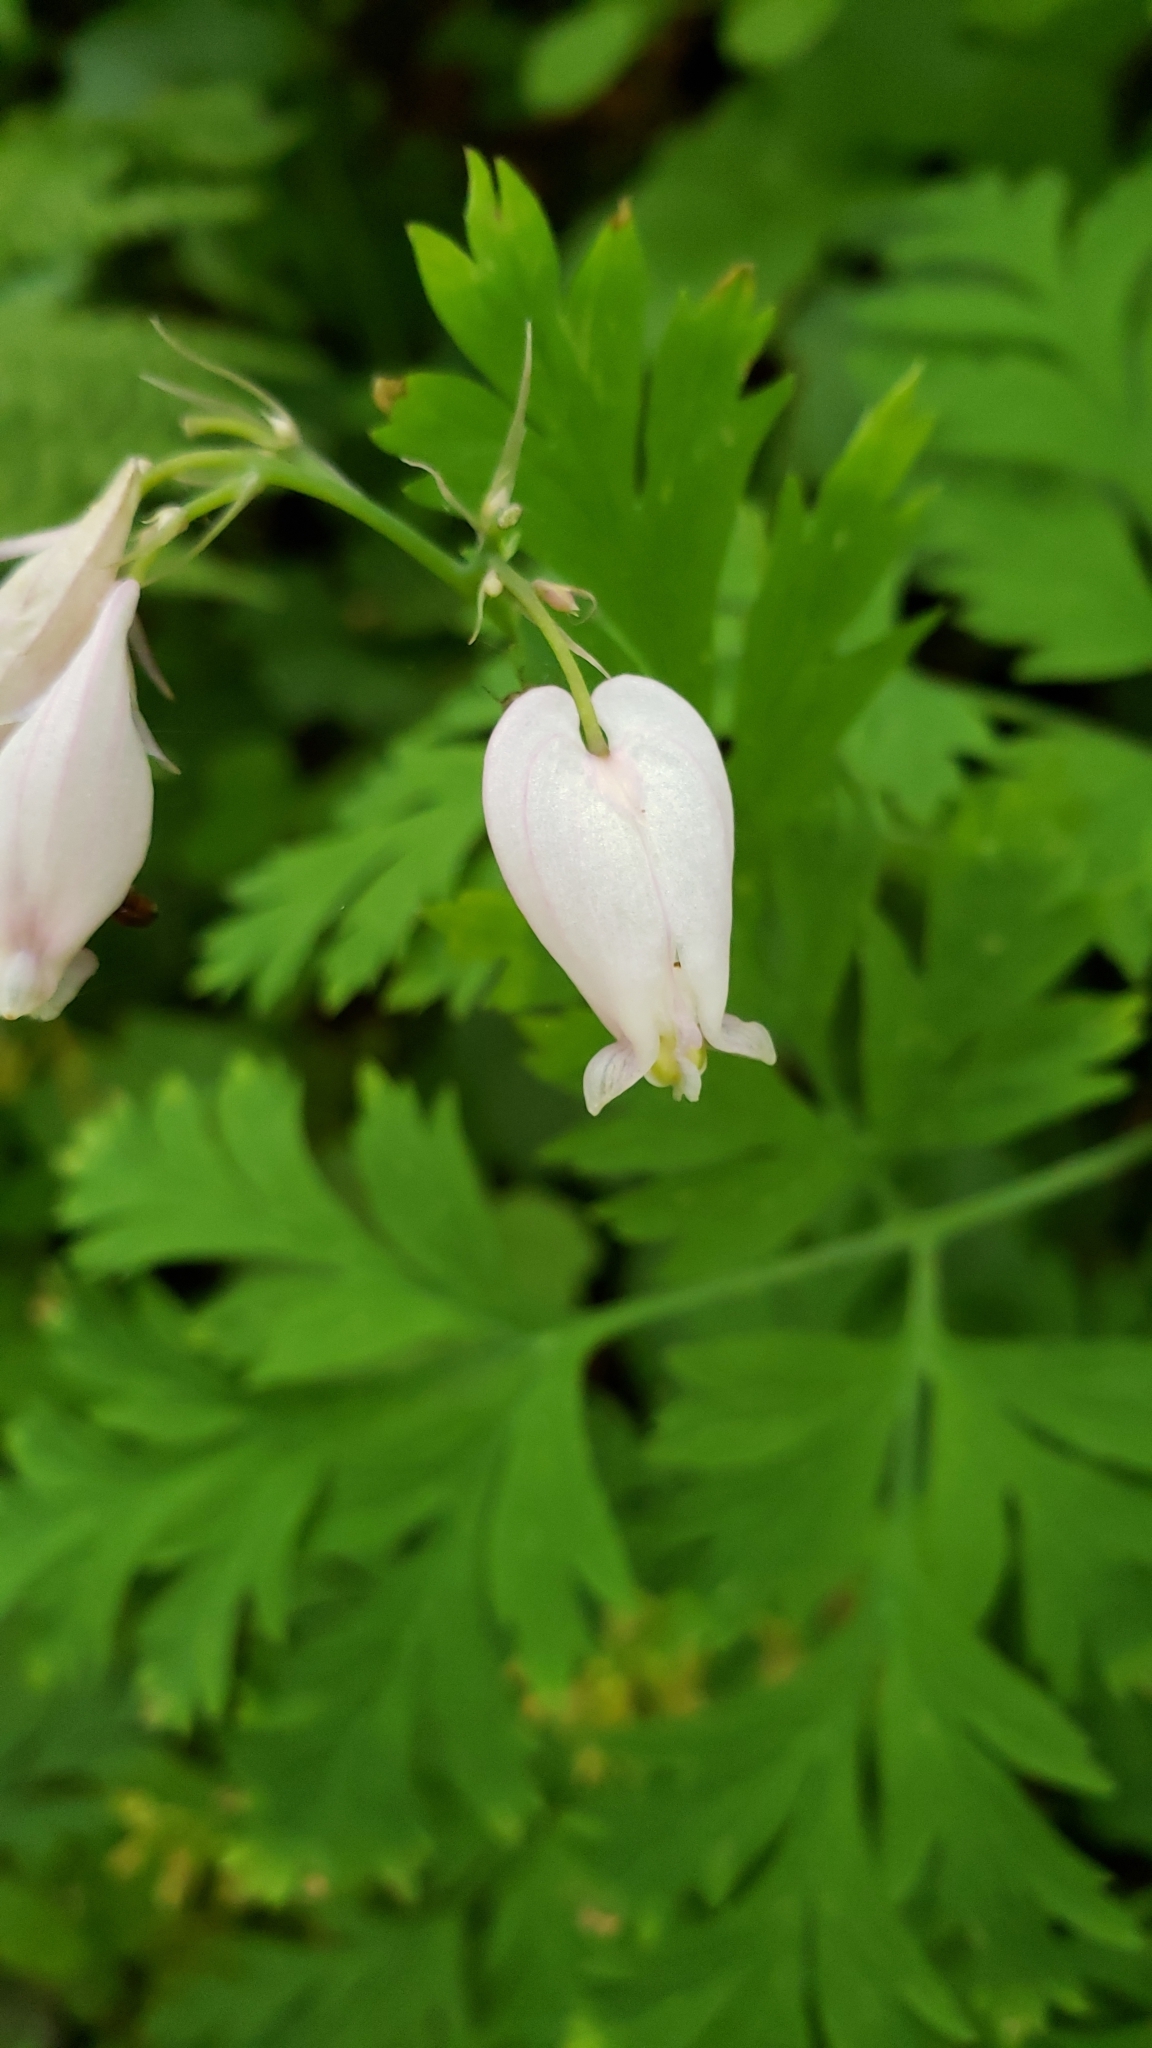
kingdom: Plantae
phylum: Tracheophyta
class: Magnoliopsida
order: Ranunculales
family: Papaveraceae
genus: Dicentra
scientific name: Dicentra formosa
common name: Bleeding-heart
